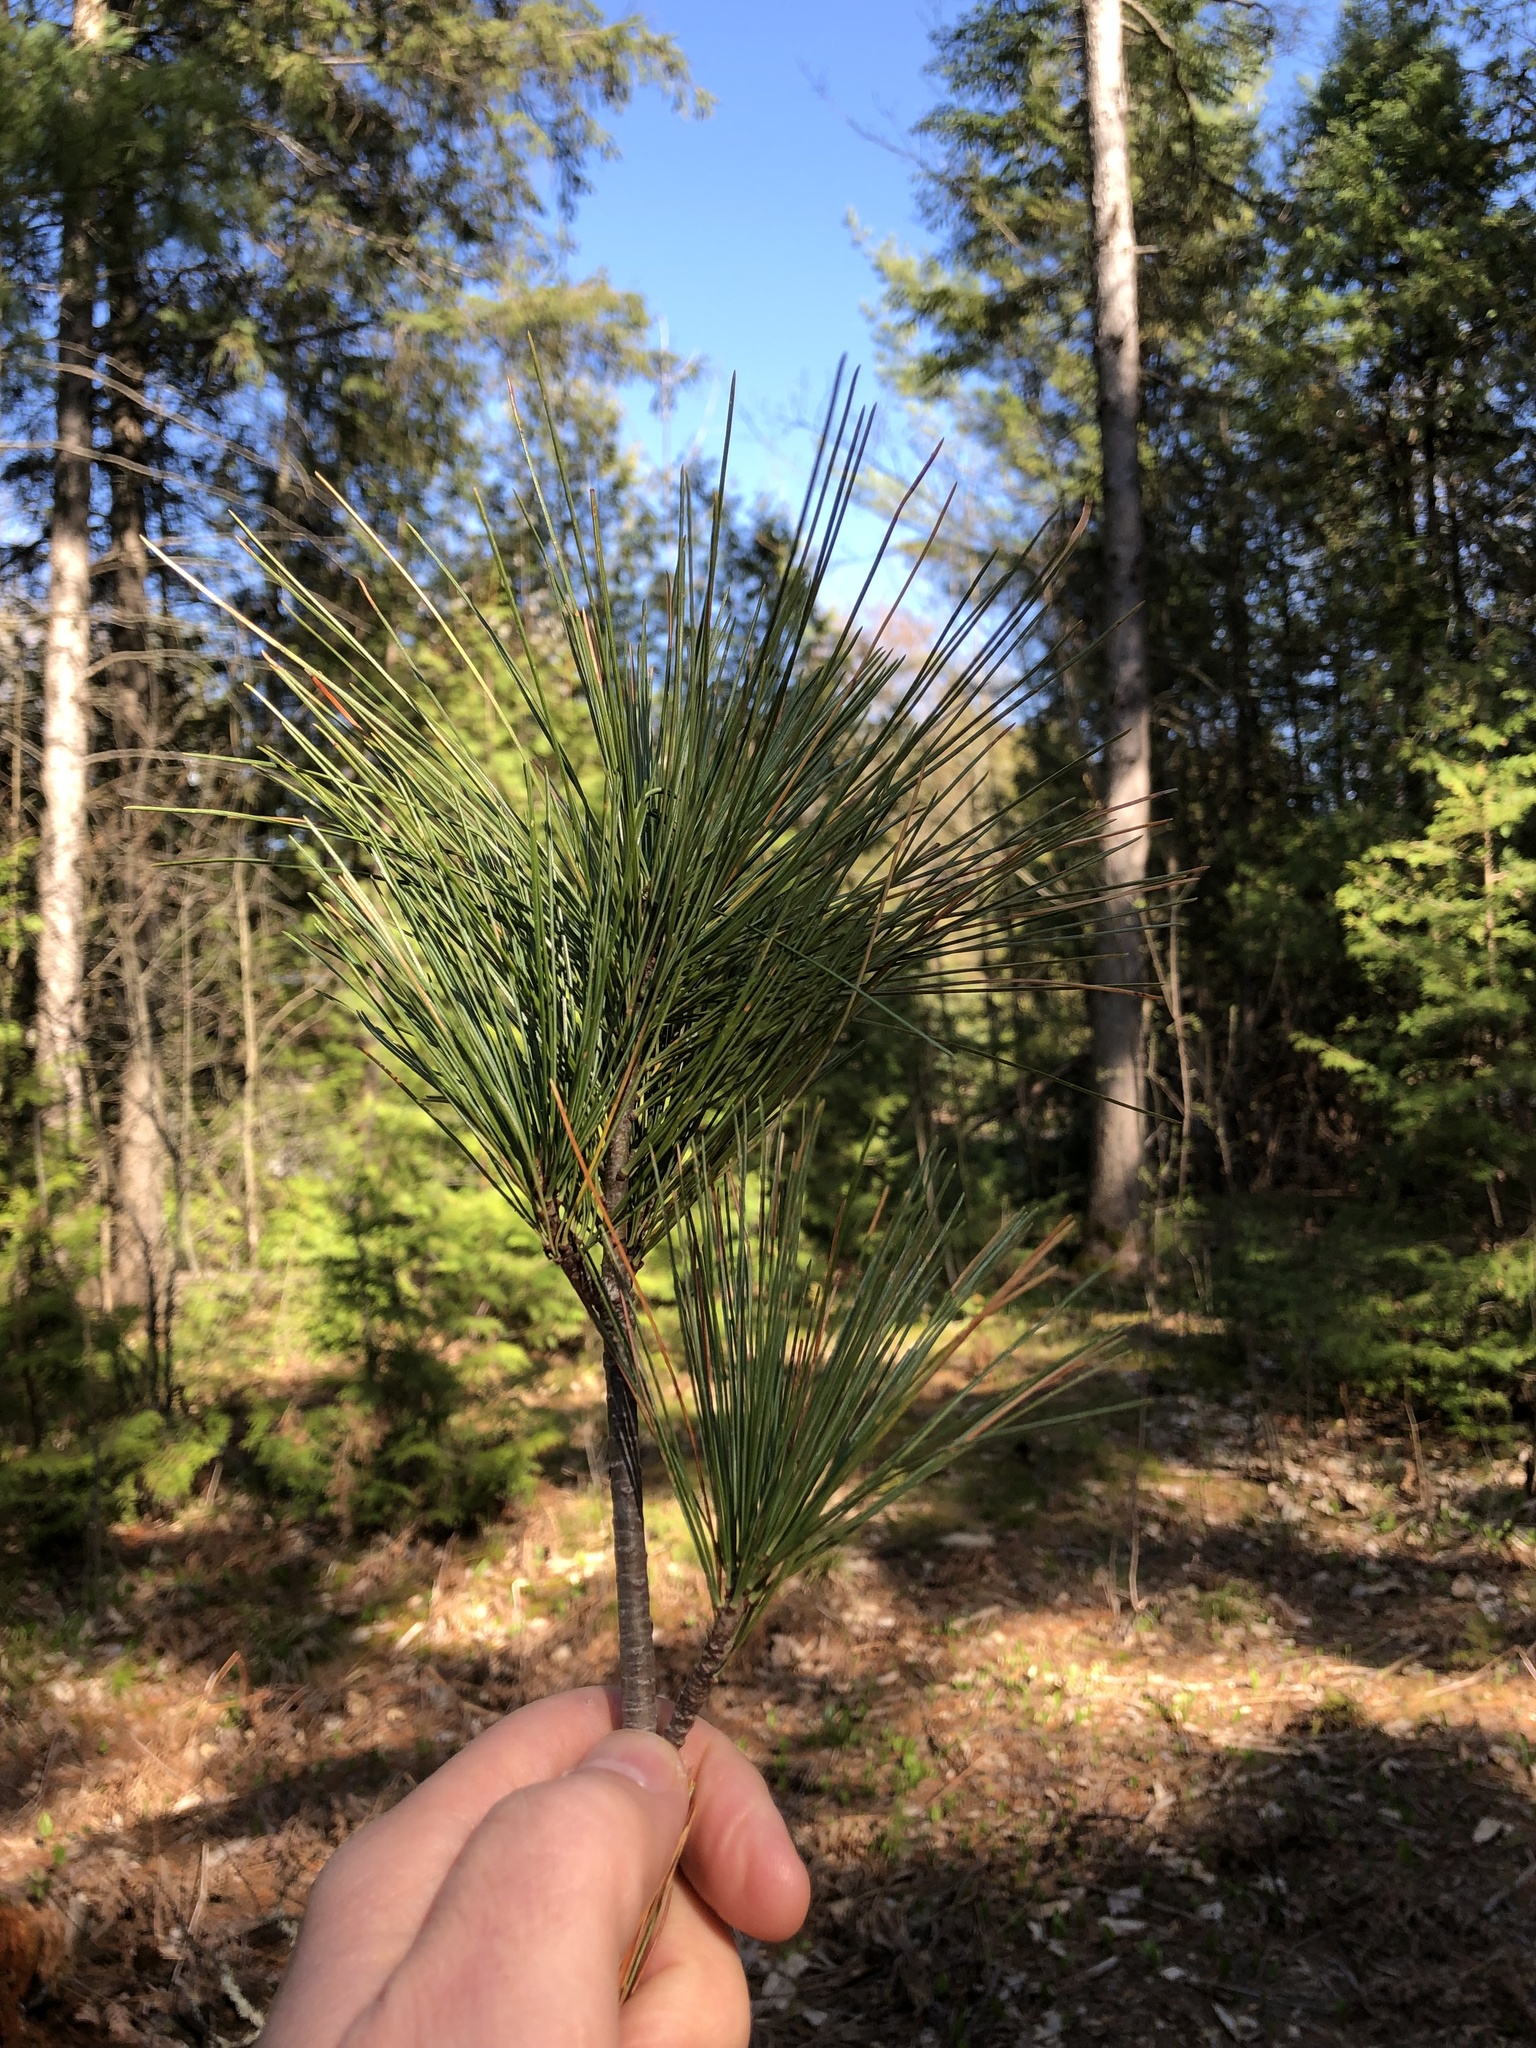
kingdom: Plantae
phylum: Tracheophyta
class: Pinopsida
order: Pinales
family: Pinaceae
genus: Pinus
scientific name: Pinus strobus
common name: Weymouth pine
